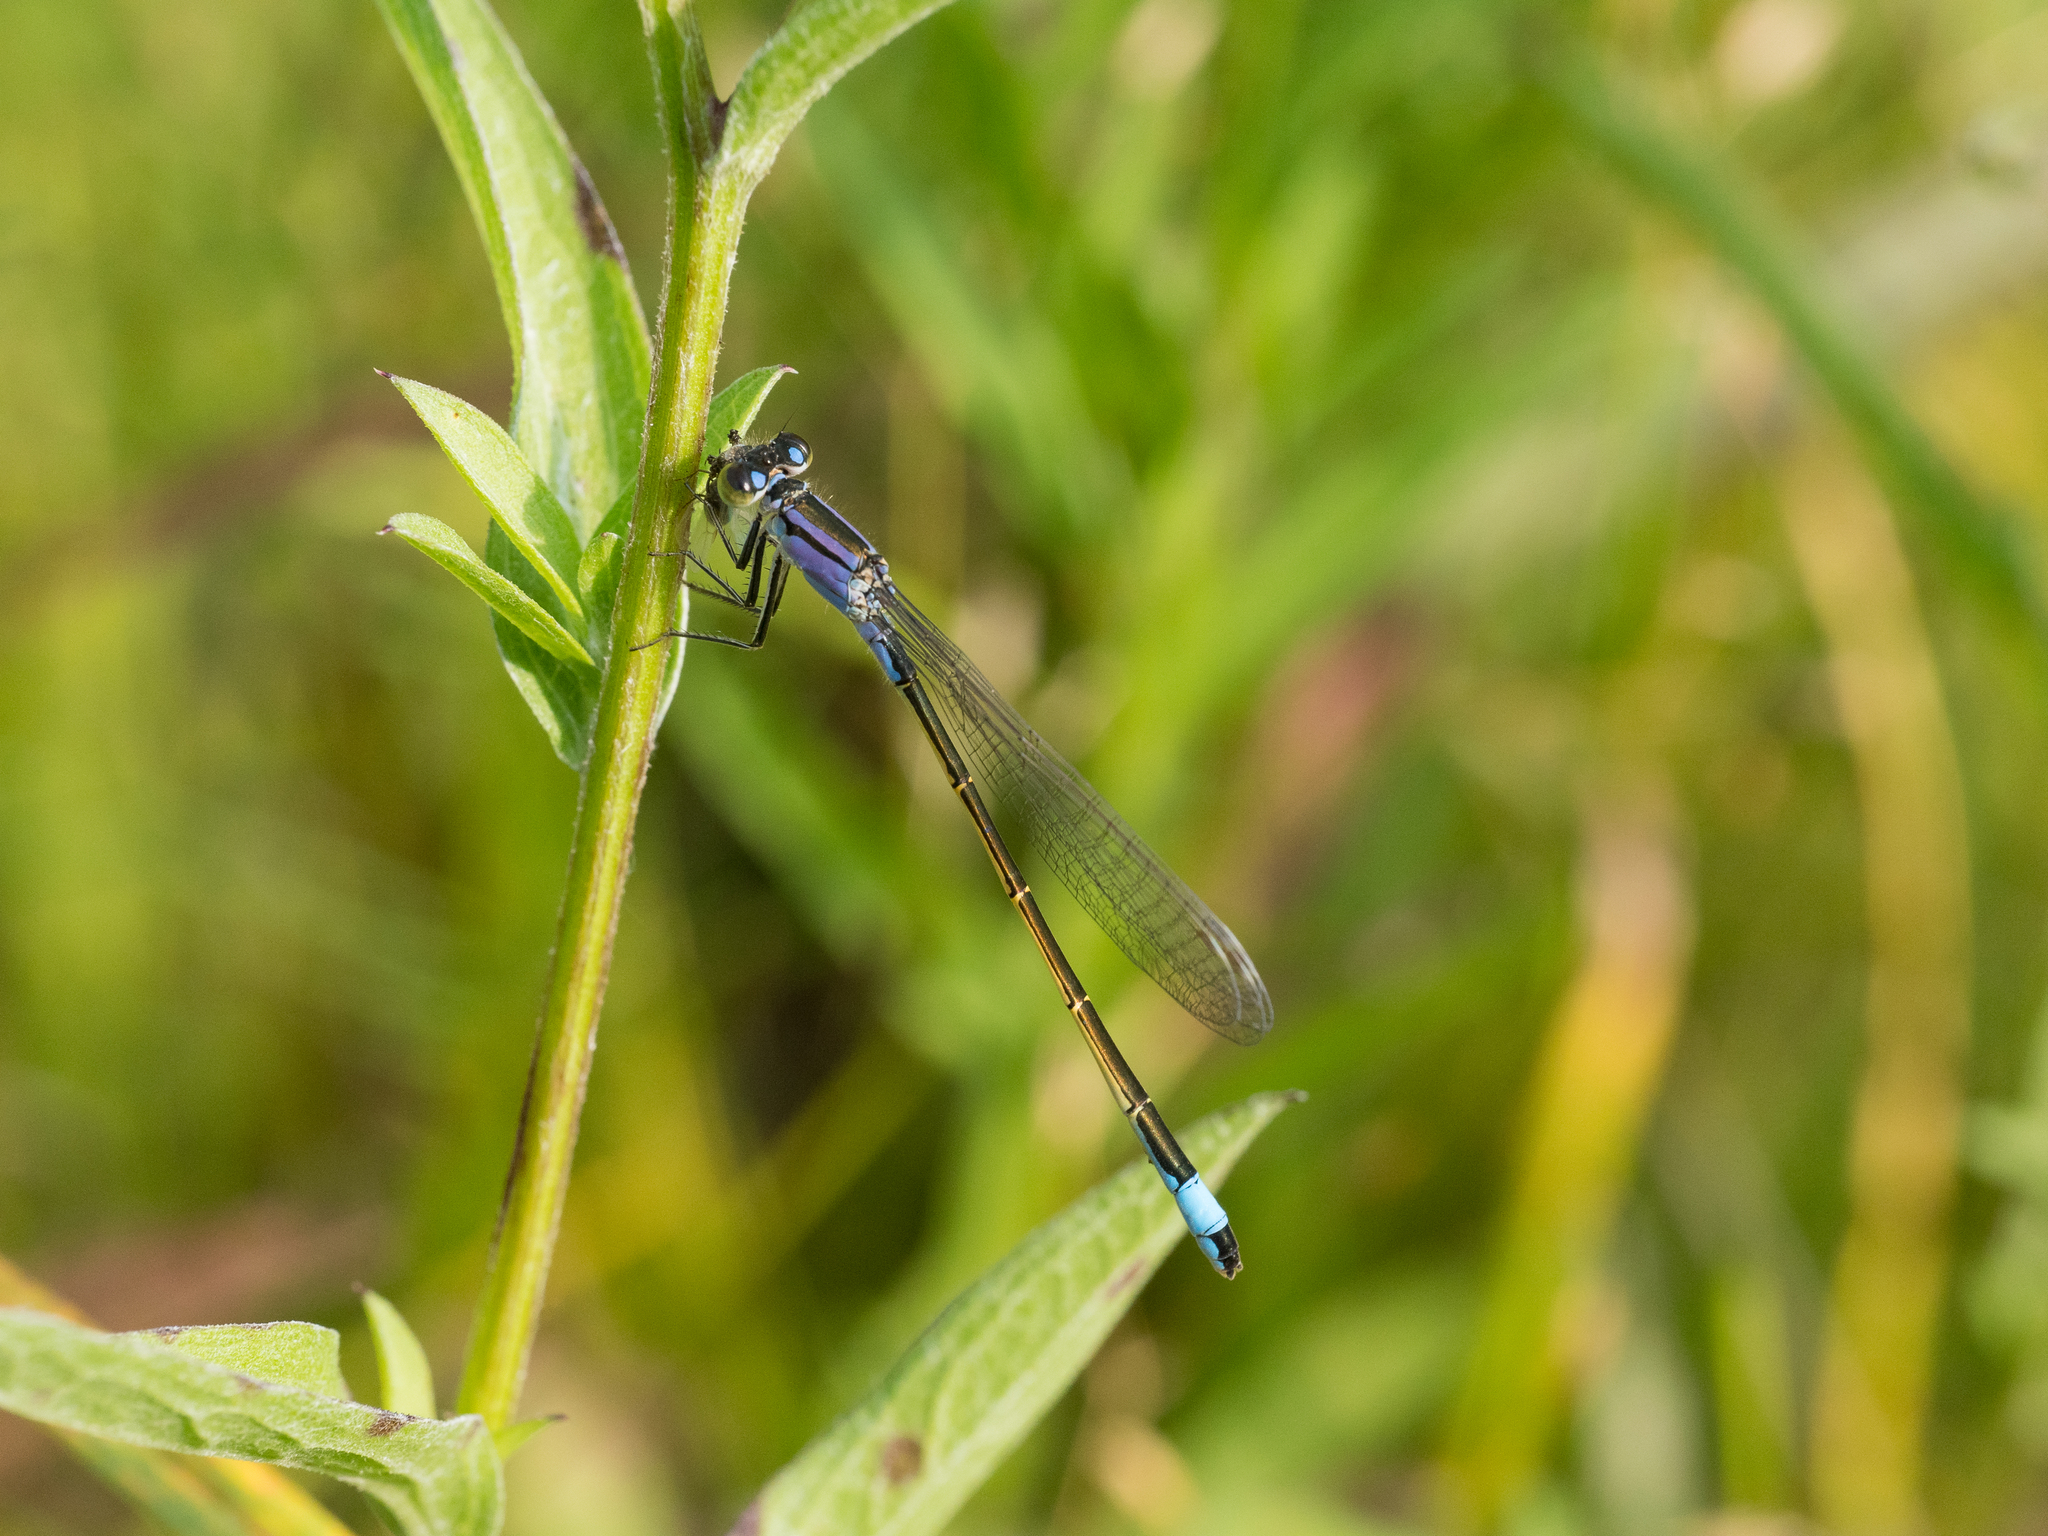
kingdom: Animalia
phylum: Arthropoda
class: Insecta
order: Odonata
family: Coenagrionidae
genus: Ischnura
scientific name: Ischnura elegans
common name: Blue-tailed damselfly
